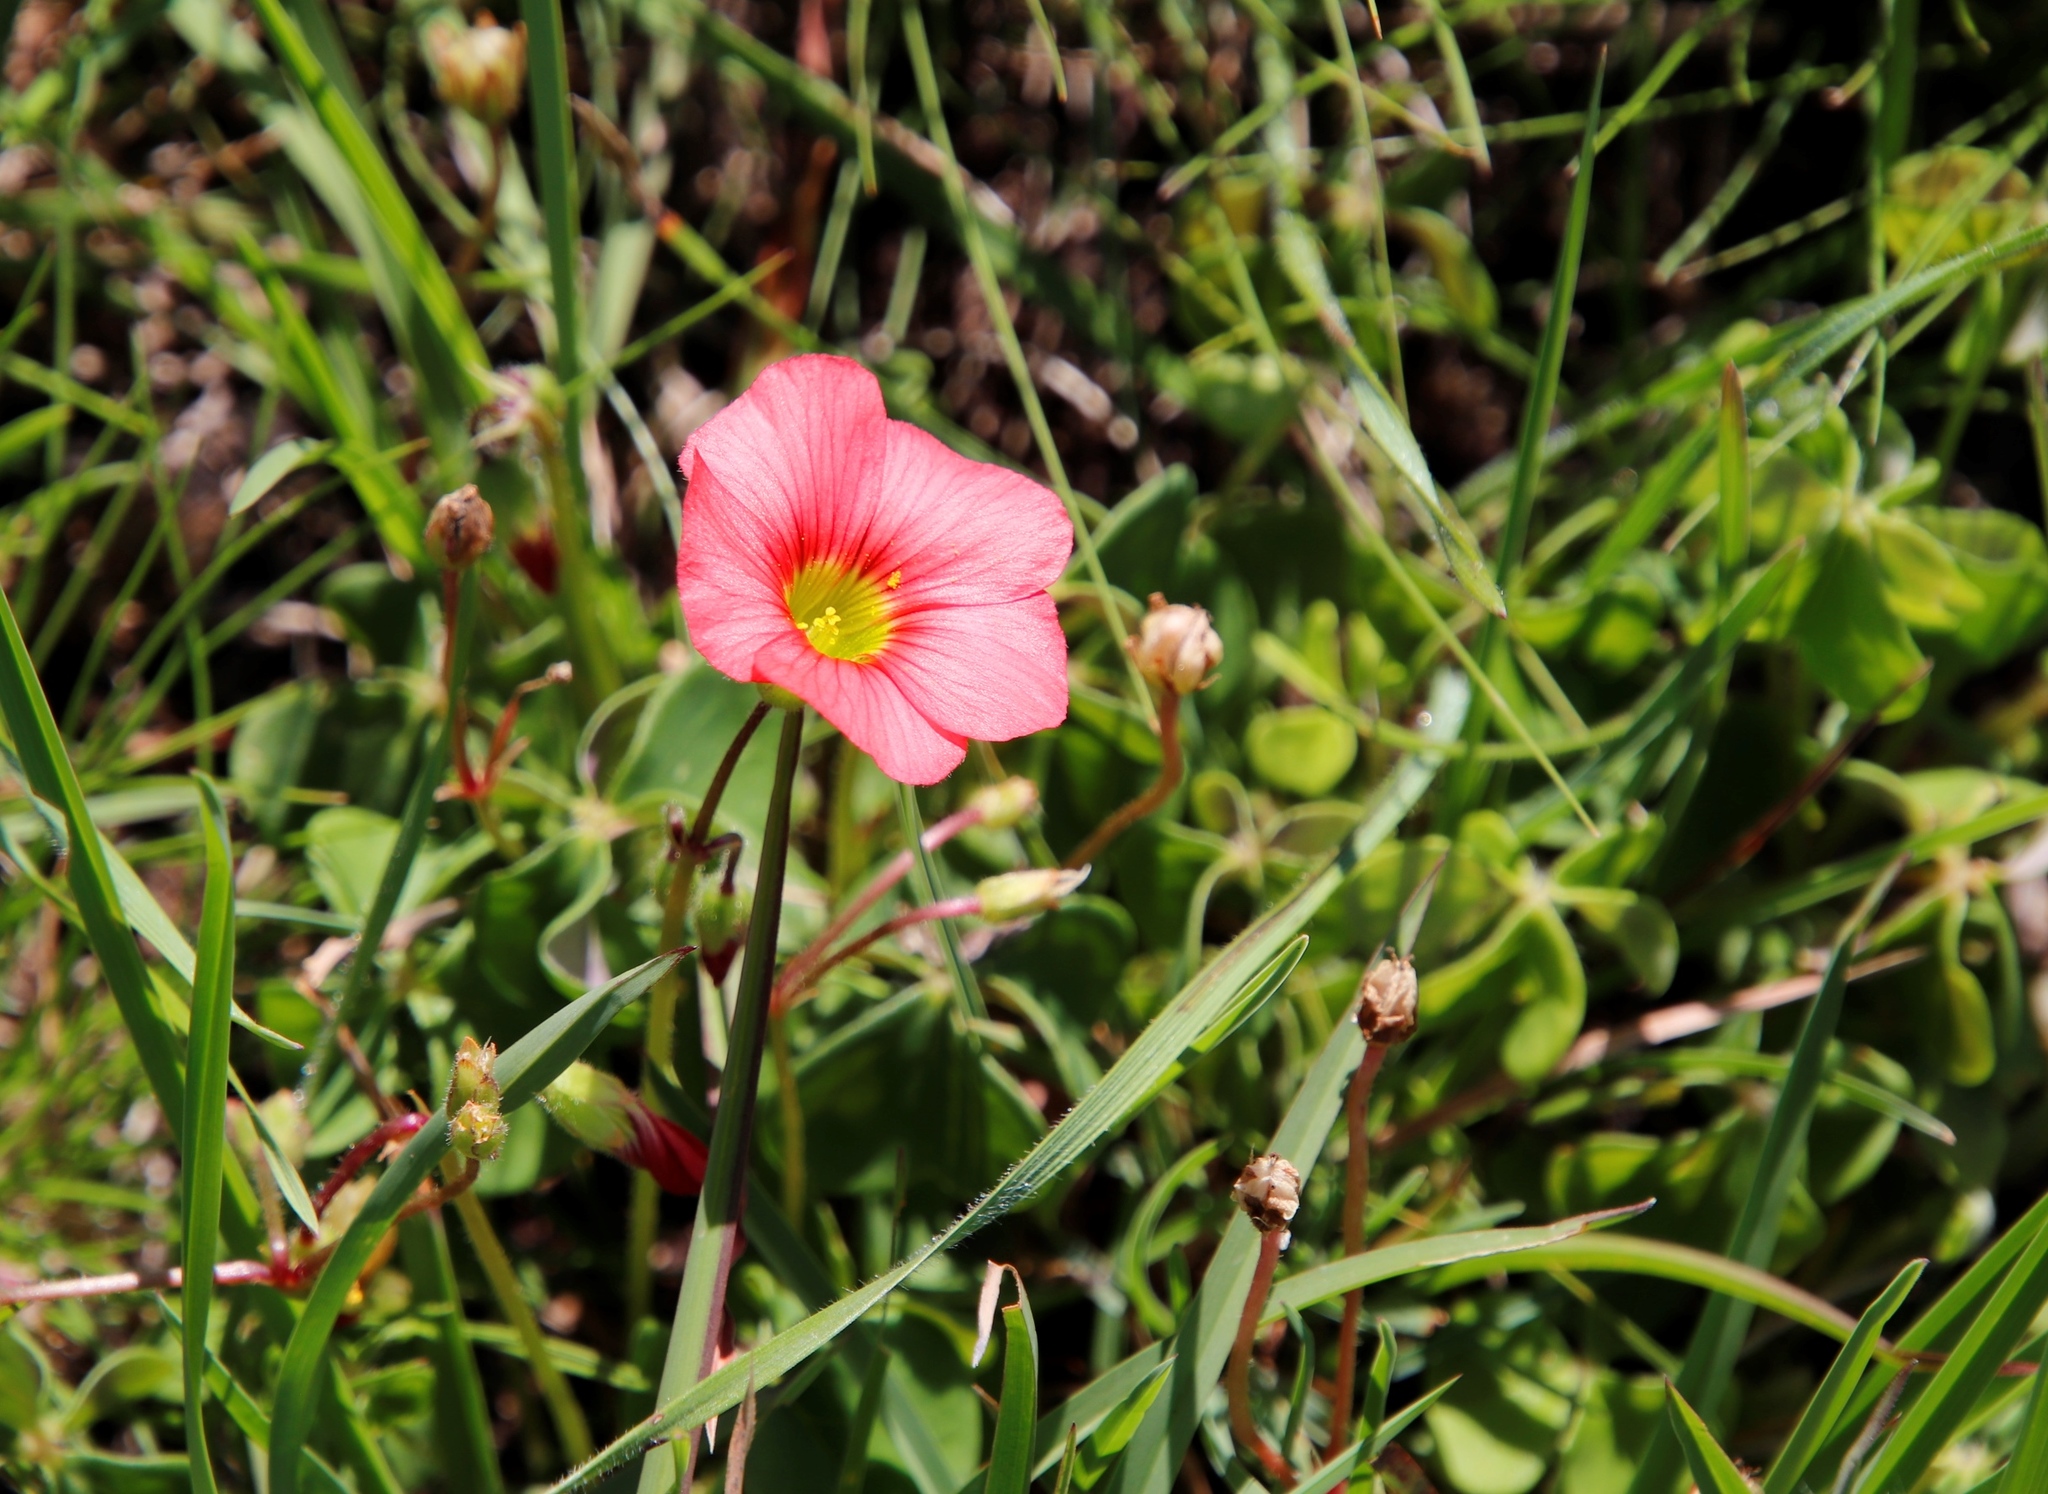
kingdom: Plantae
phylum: Tracheophyta
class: Magnoliopsida
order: Oxalidales
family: Oxalidaceae
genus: Oxalis
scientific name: Oxalis bowiei
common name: Bowie's wood-sorrel
